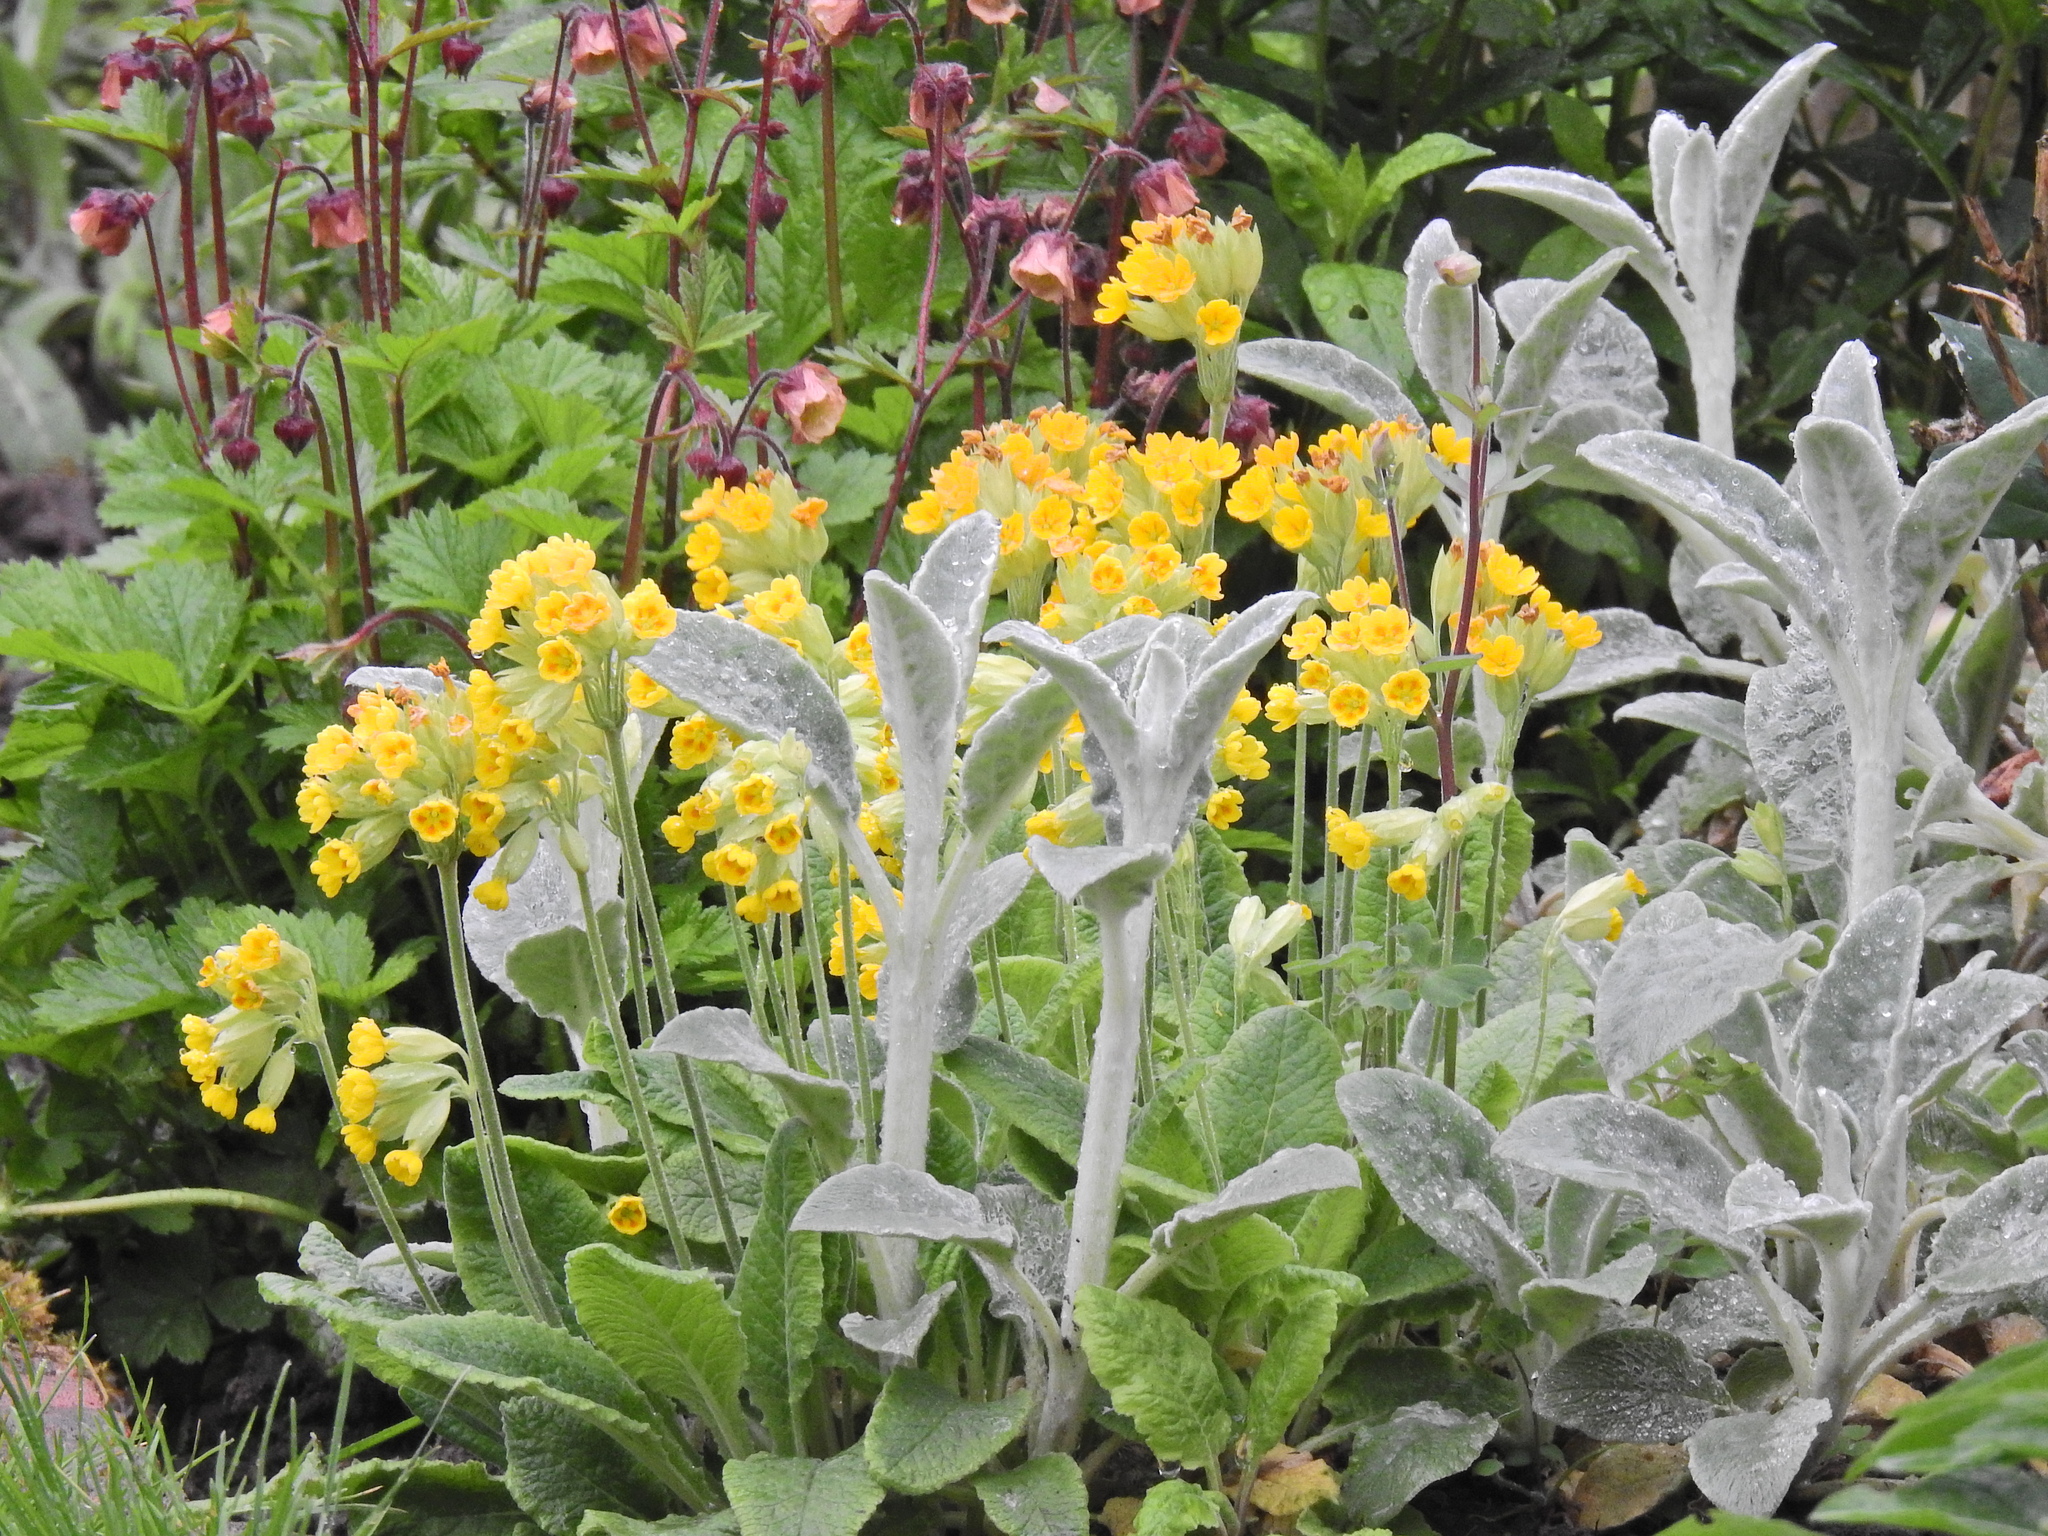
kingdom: Plantae
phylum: Tracheophyta
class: Magnoliopsida
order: Ericales
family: Primulaceae
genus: Primula
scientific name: Primula veris
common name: Cowslip
